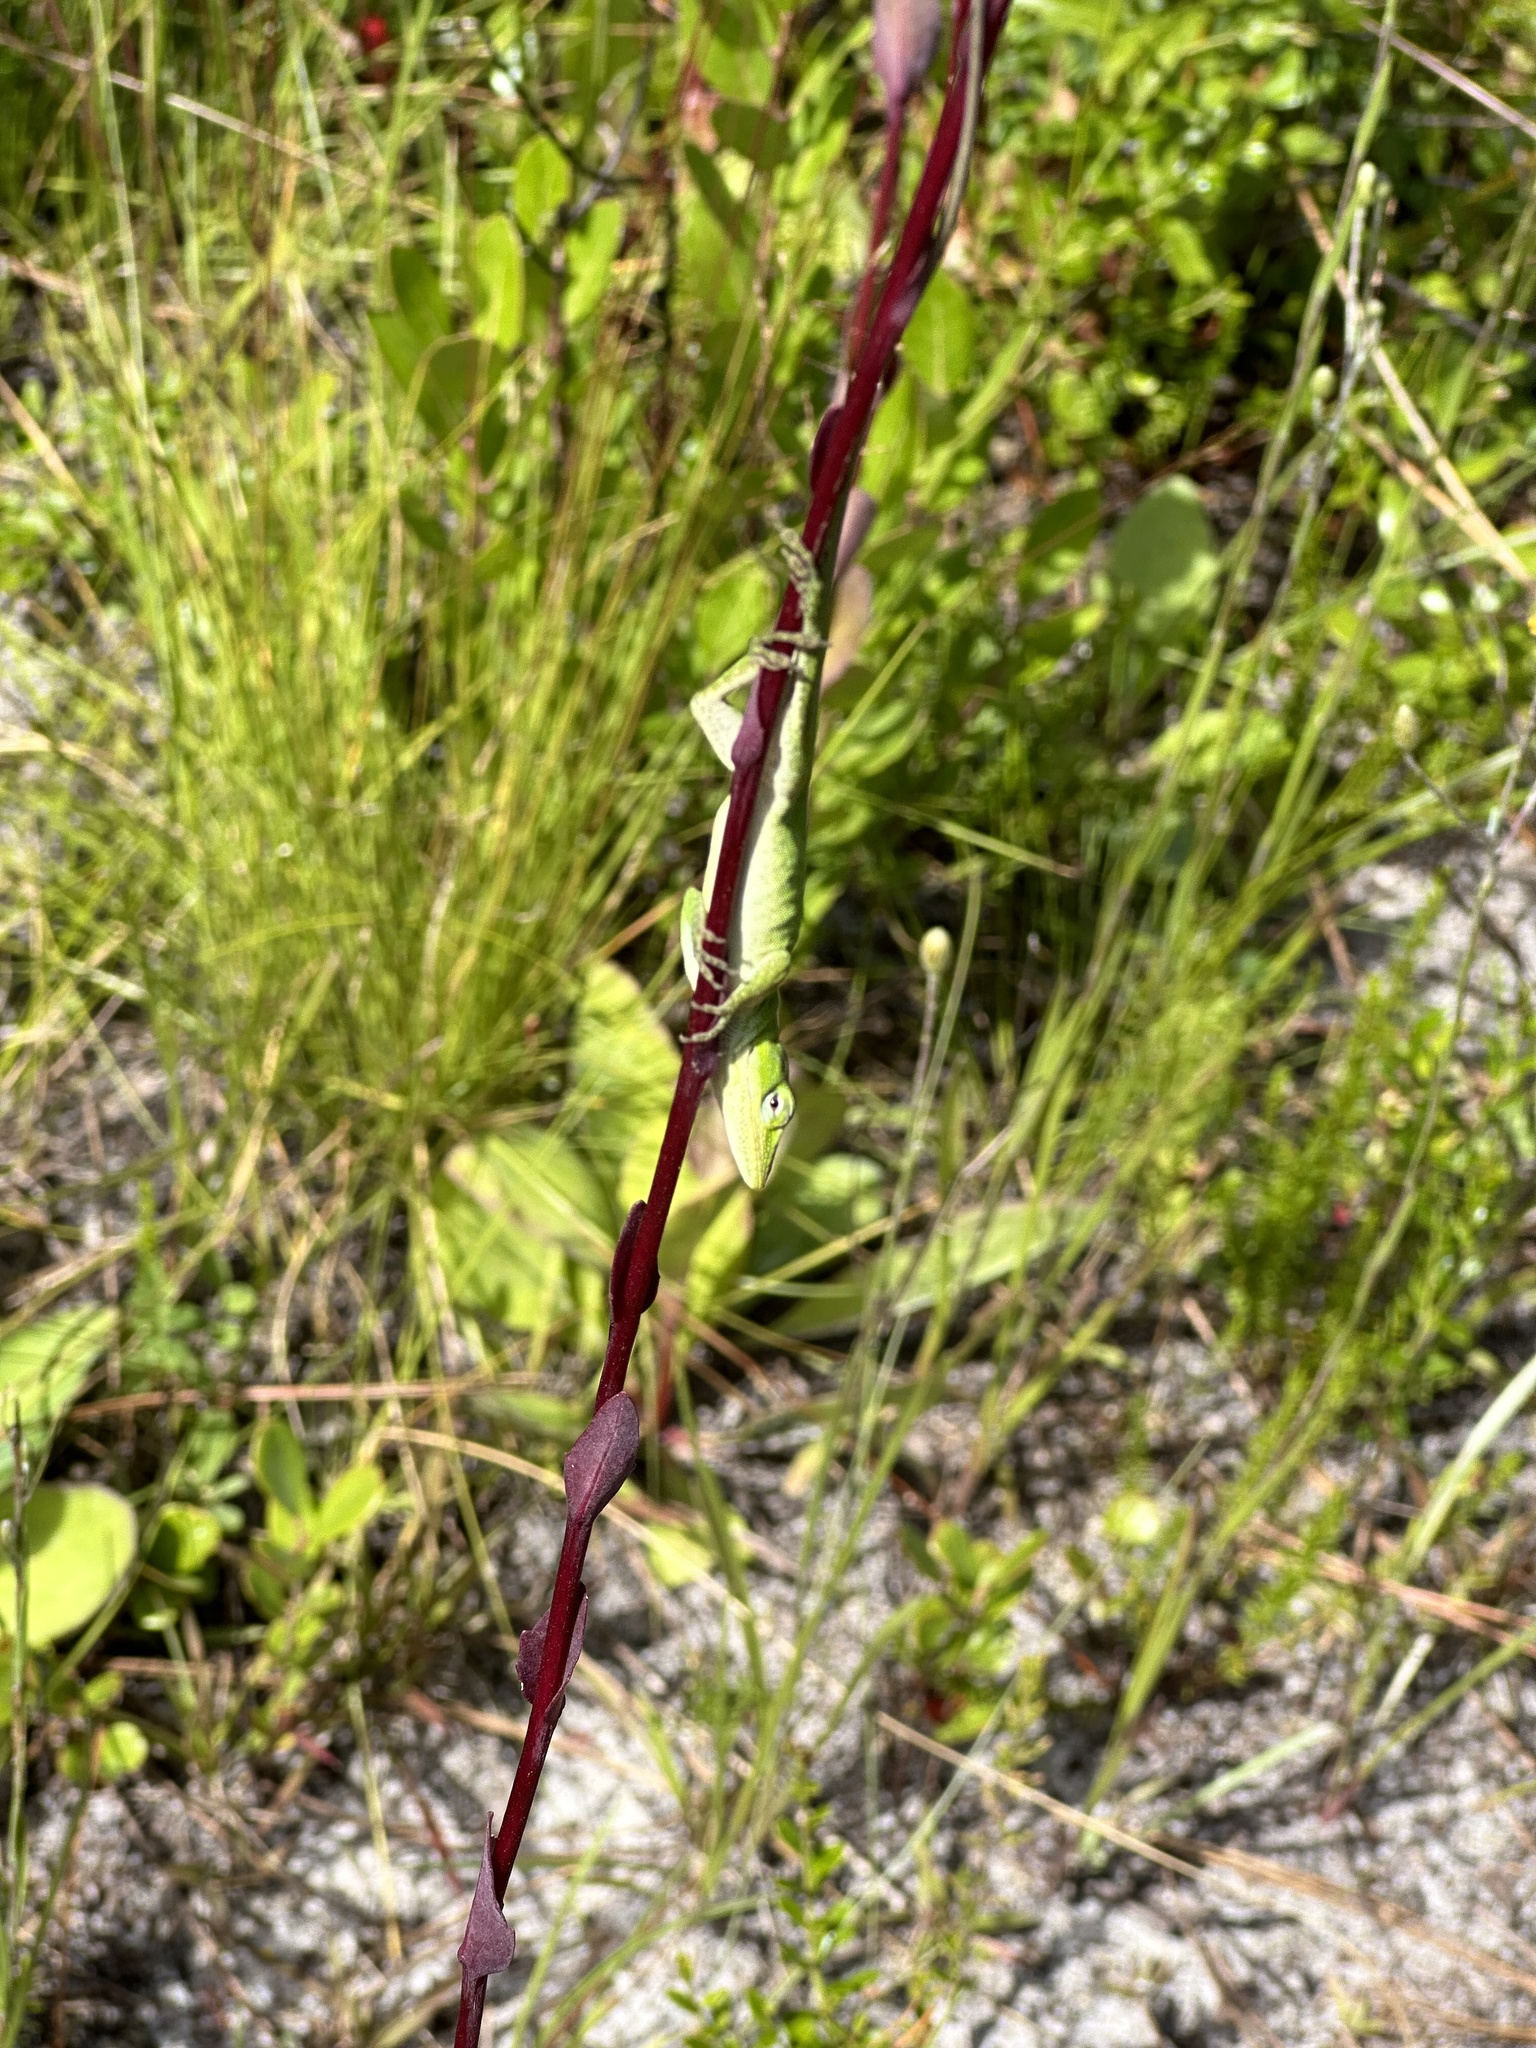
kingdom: Animalia
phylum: Chordata
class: Squamata
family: Dactyloidae
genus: Anolis
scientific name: Anolis carolinensis
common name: Green anole
